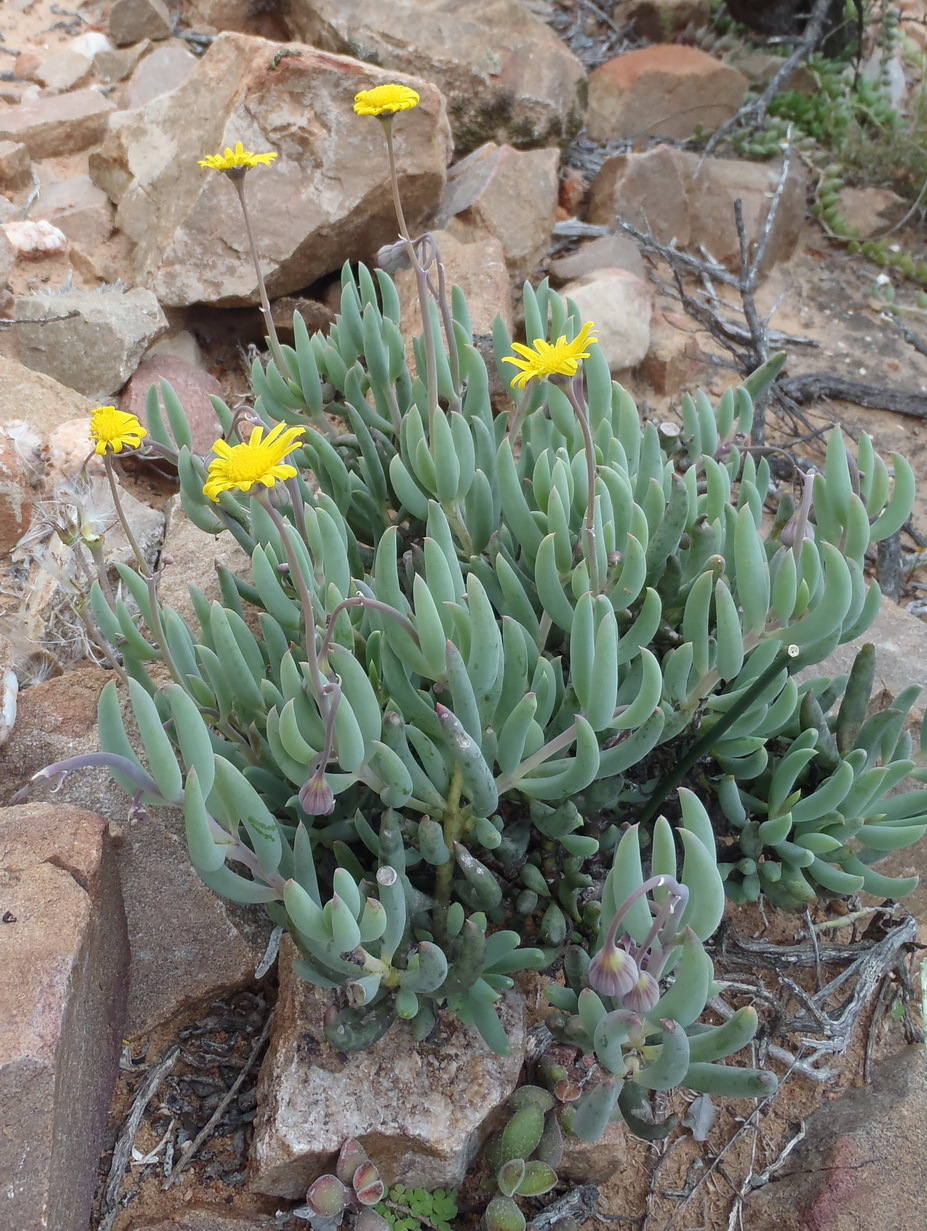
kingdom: Plantae
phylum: Tracheophyta
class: Magnoliopsida
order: Asterales
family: Asteraceae
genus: Crassothonna
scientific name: Crassothonna cacalioides
